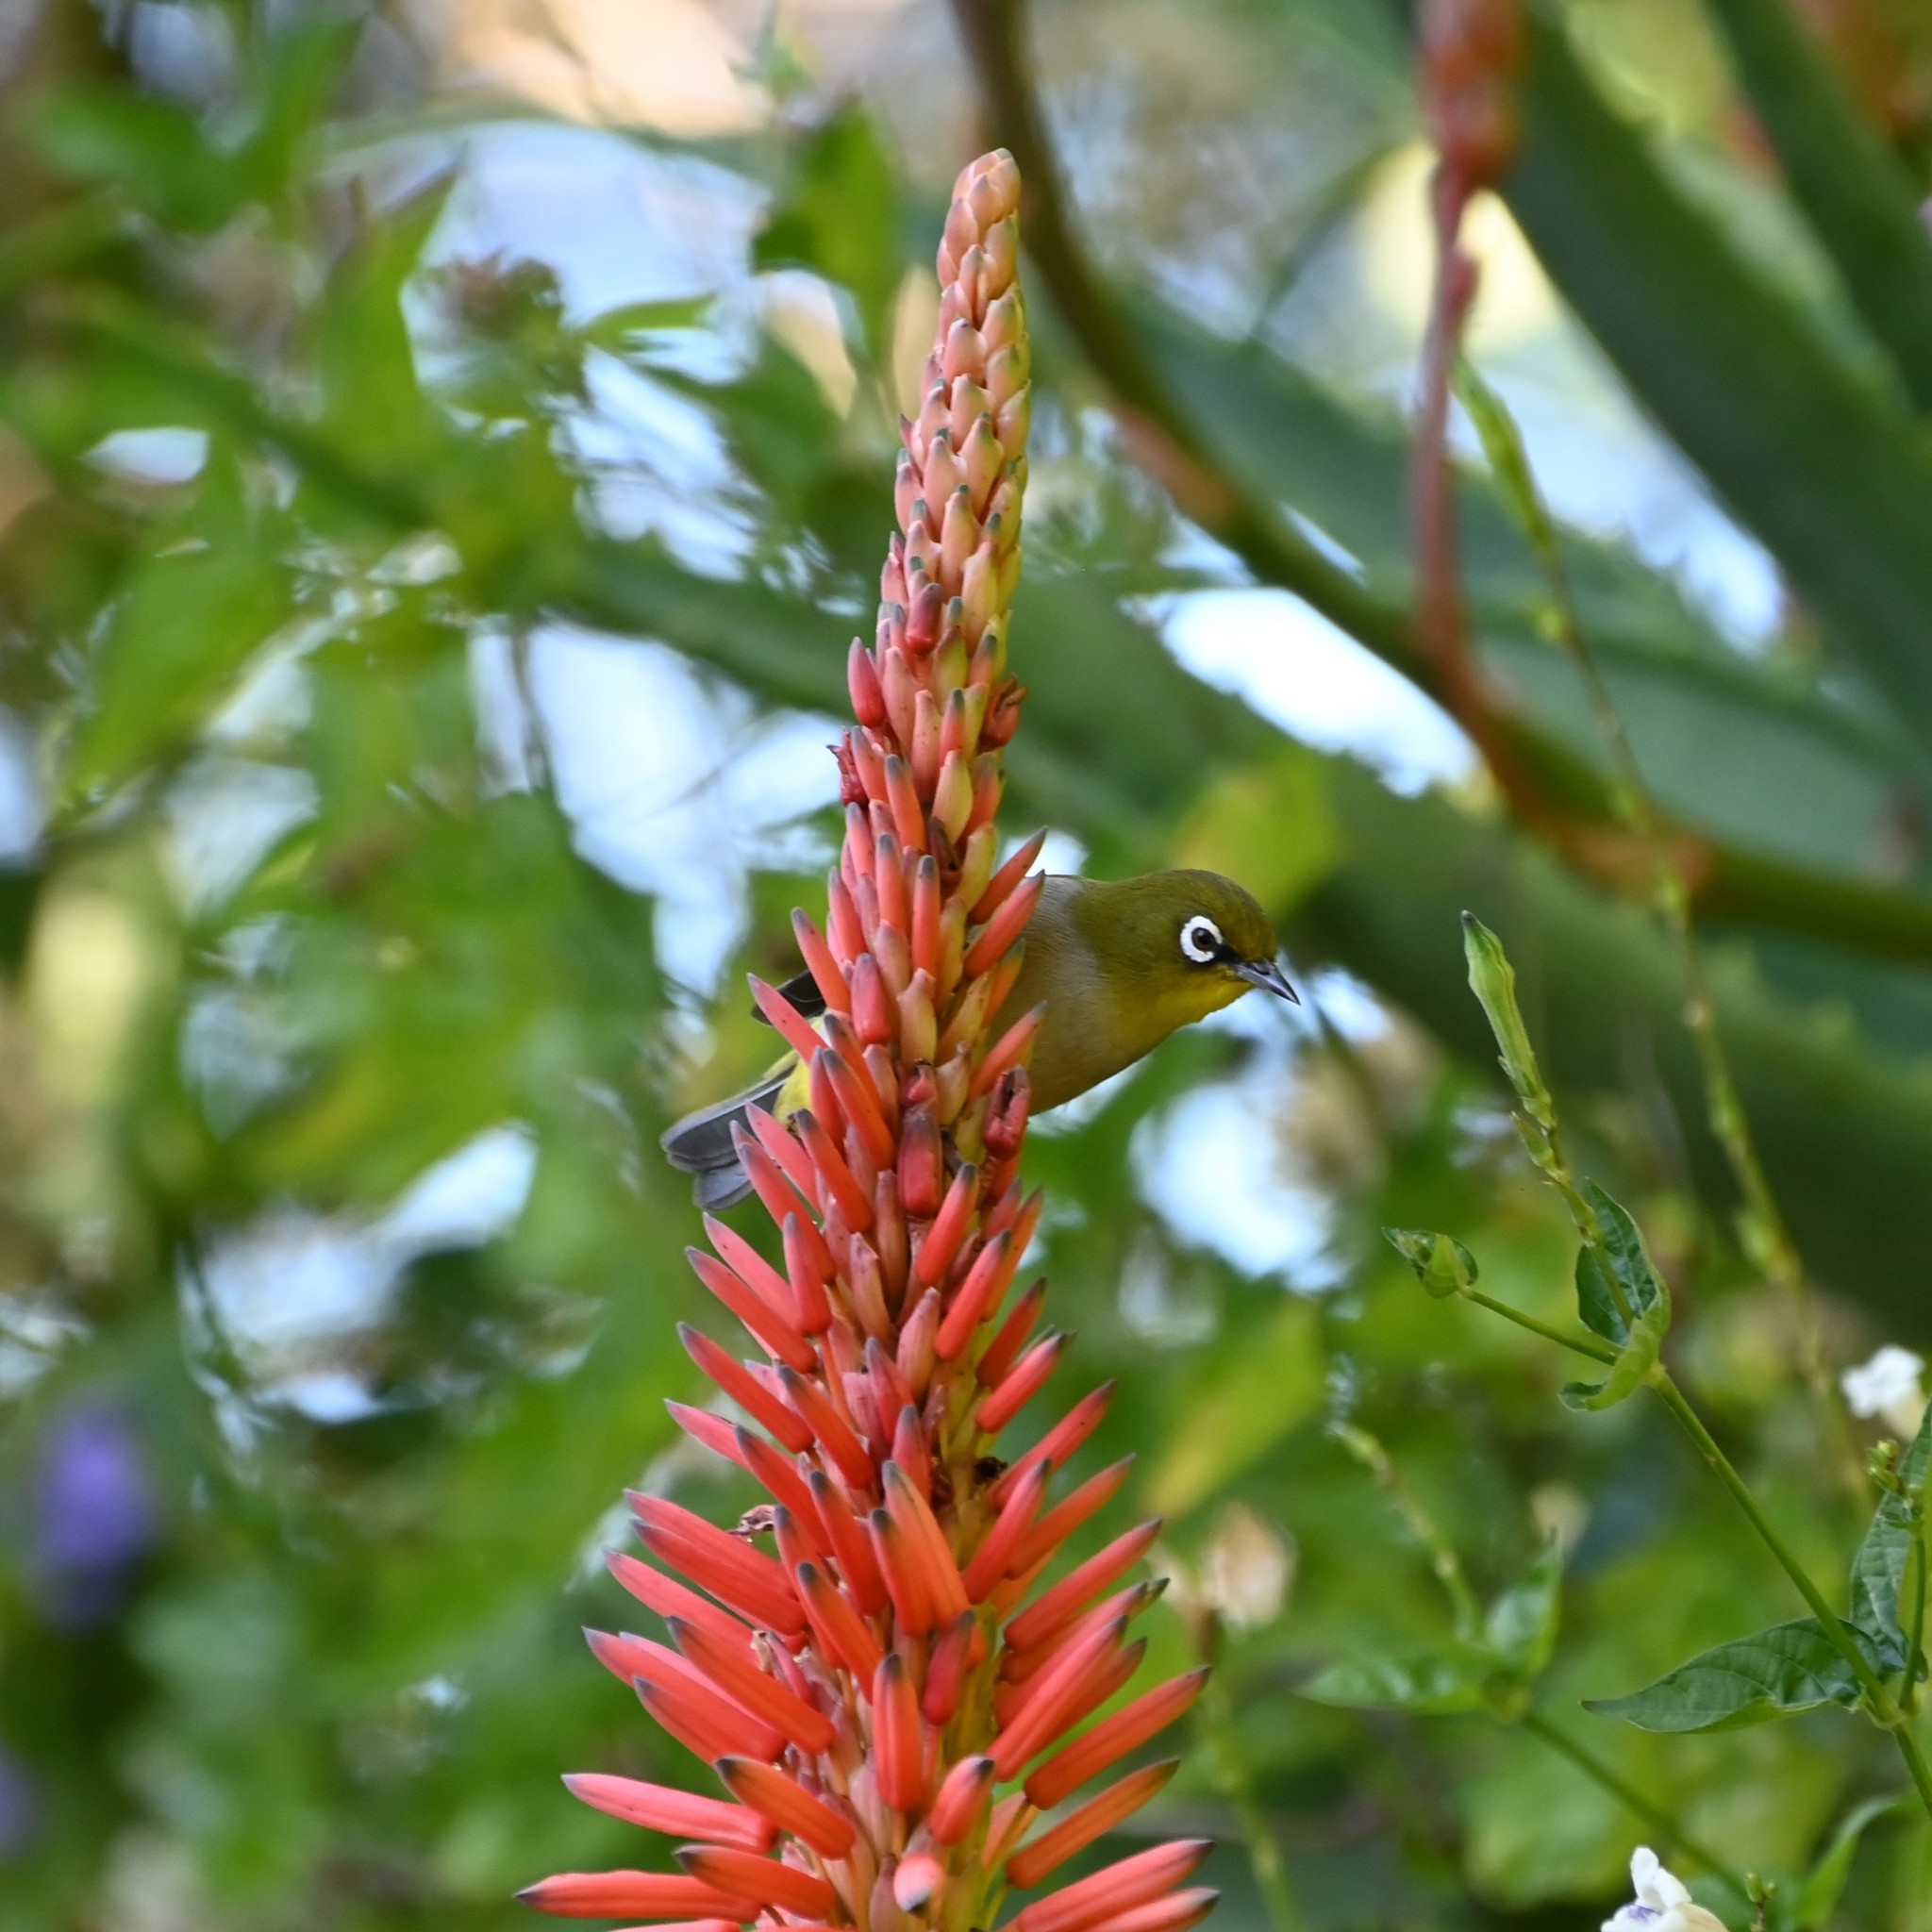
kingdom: Animalia
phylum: Chordata
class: Aves
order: Passeriformes
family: Zosteropidae
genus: Zosterops
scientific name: Zosterops virens
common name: Cape white-eye
